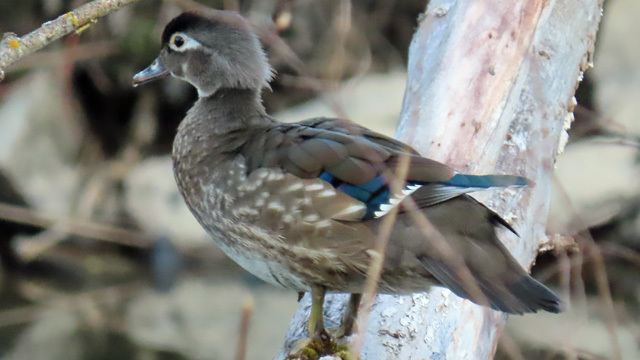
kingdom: Animalia
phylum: Chordata
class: Aves
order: Anseriformes
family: Anatidae
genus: Aix
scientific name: Aix sponsa
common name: Wood duck
